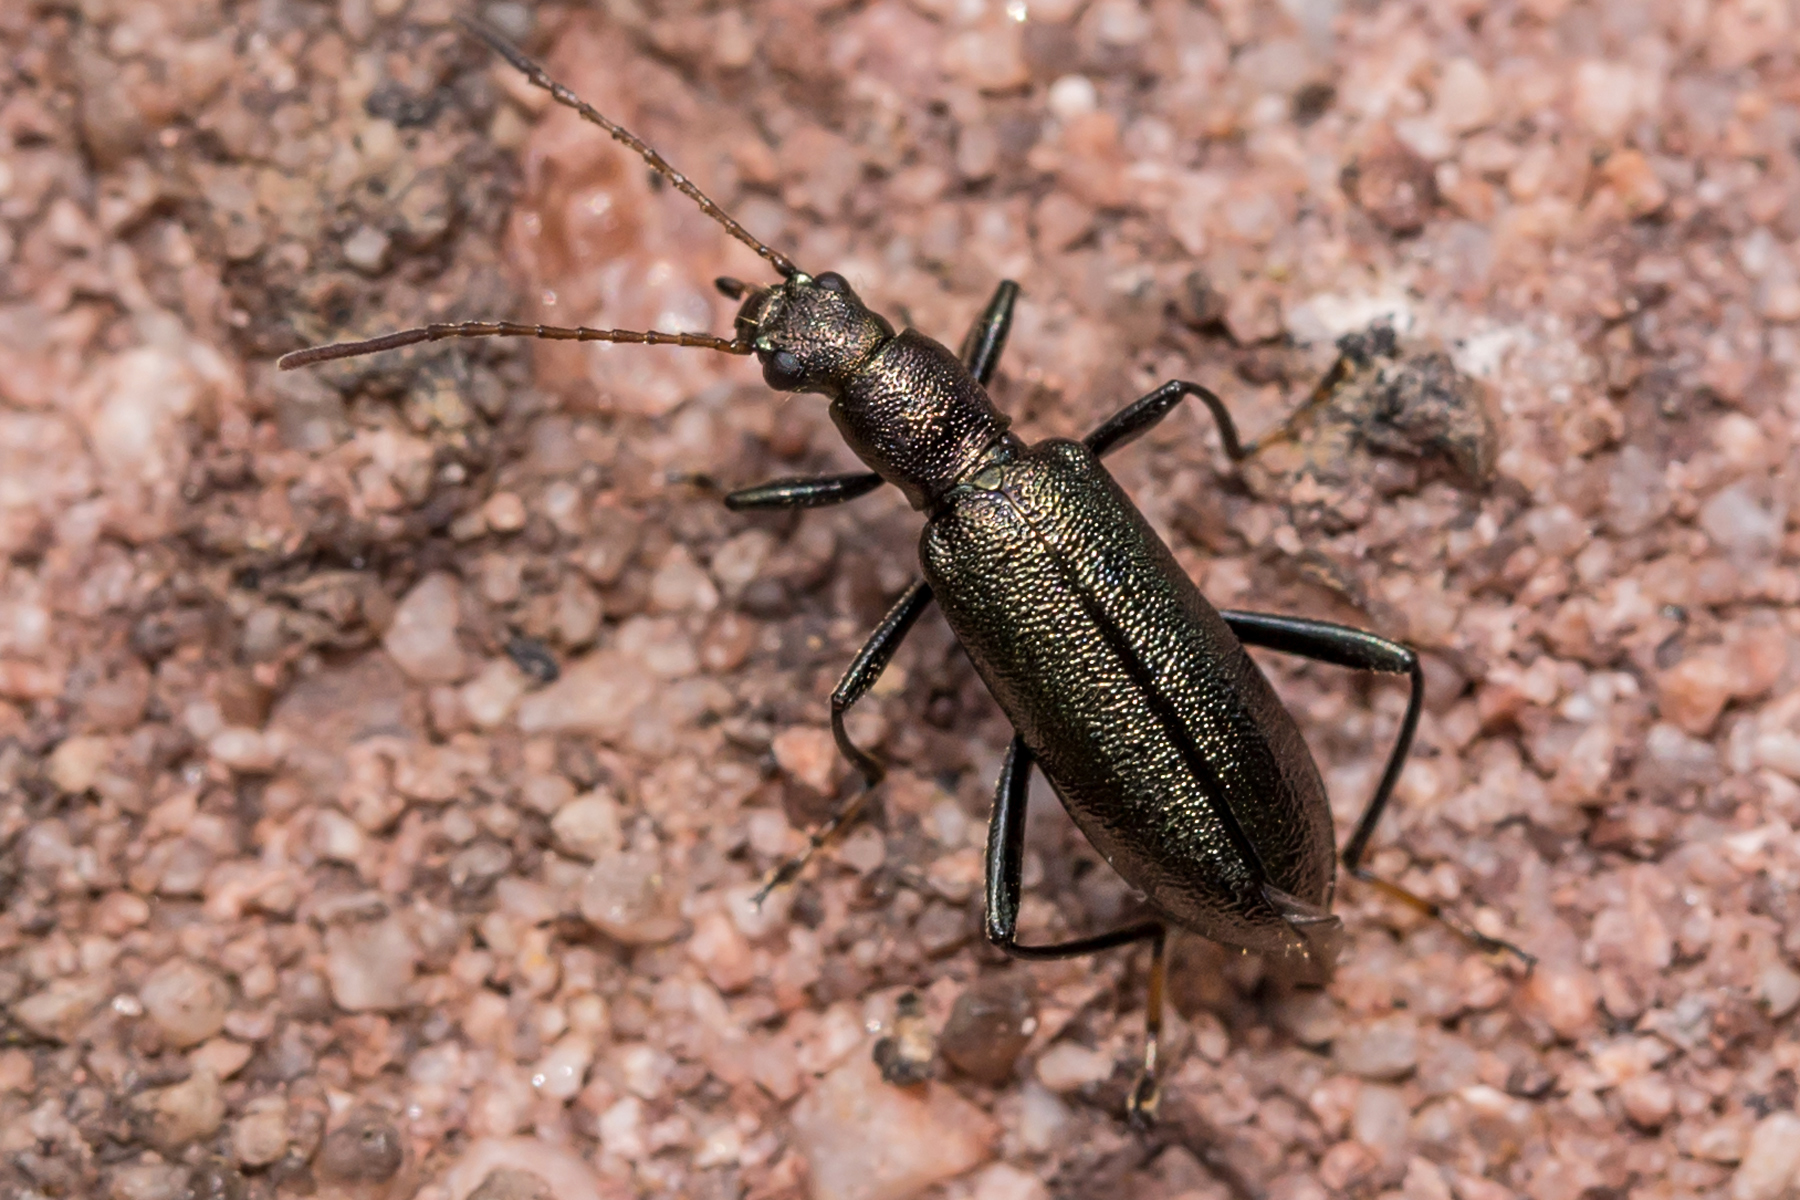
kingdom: Animalia
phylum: Arthropoda
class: Insecta
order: Coleoptera
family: Tenebrionidae
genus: Arthromacra
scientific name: Arthromacra aenea
